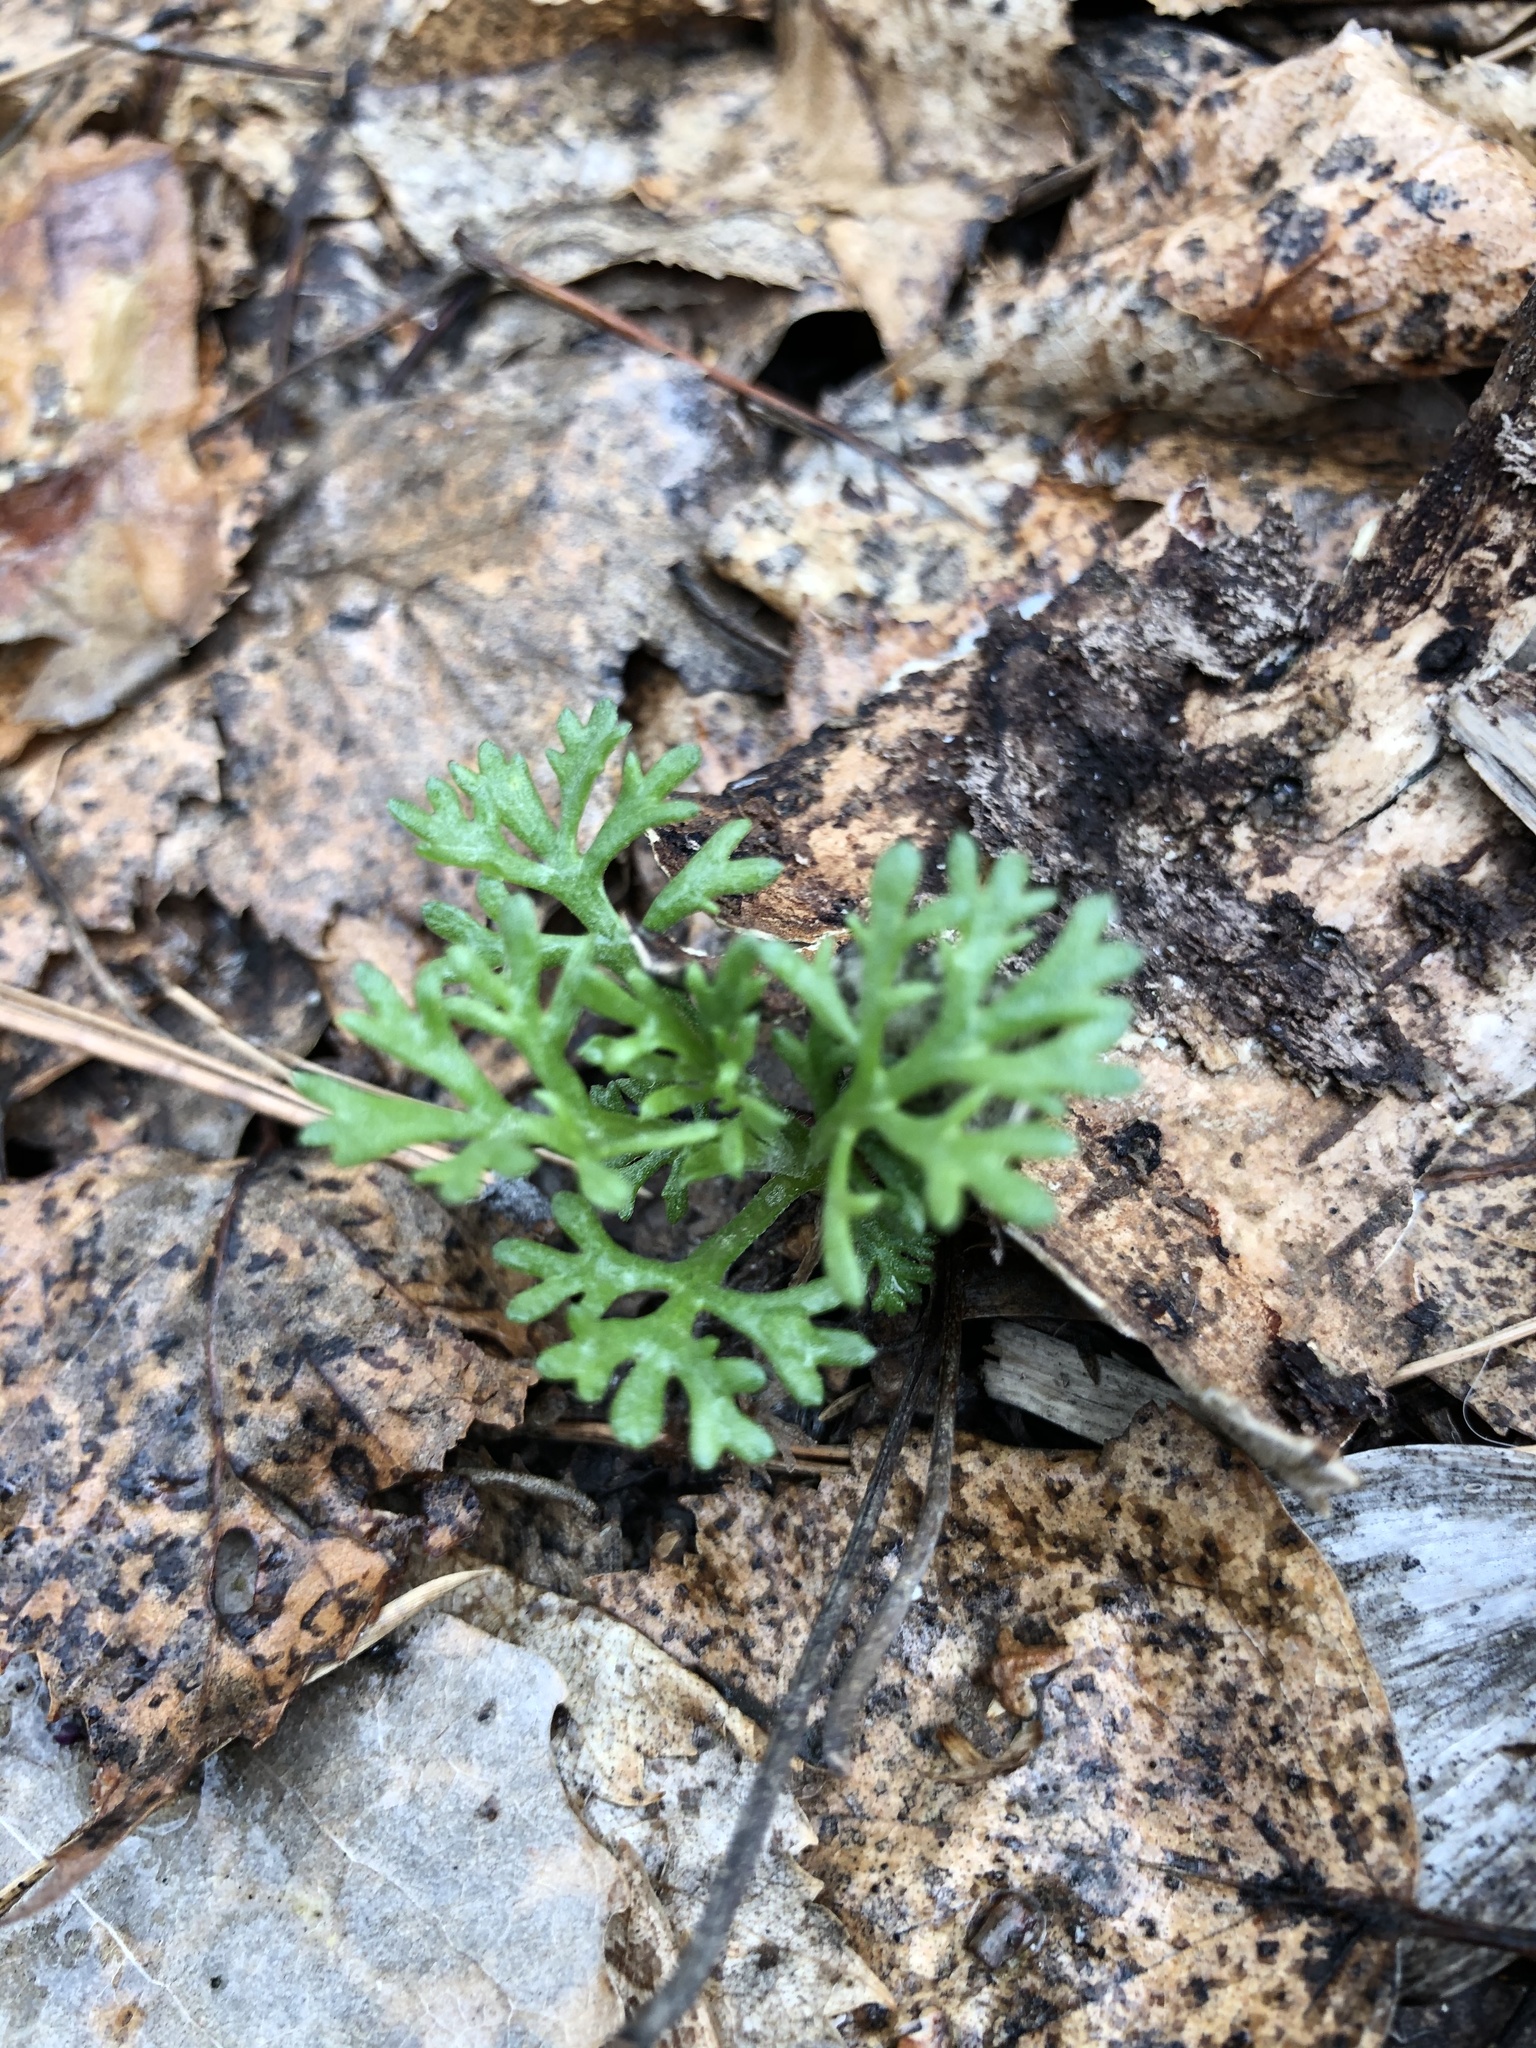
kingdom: Plantae
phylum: Tracheophyta
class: Magnoliopsida
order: Asterales
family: Asteraceae
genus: Chrysanthemum
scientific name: Chrysanthemum zawadzkii
